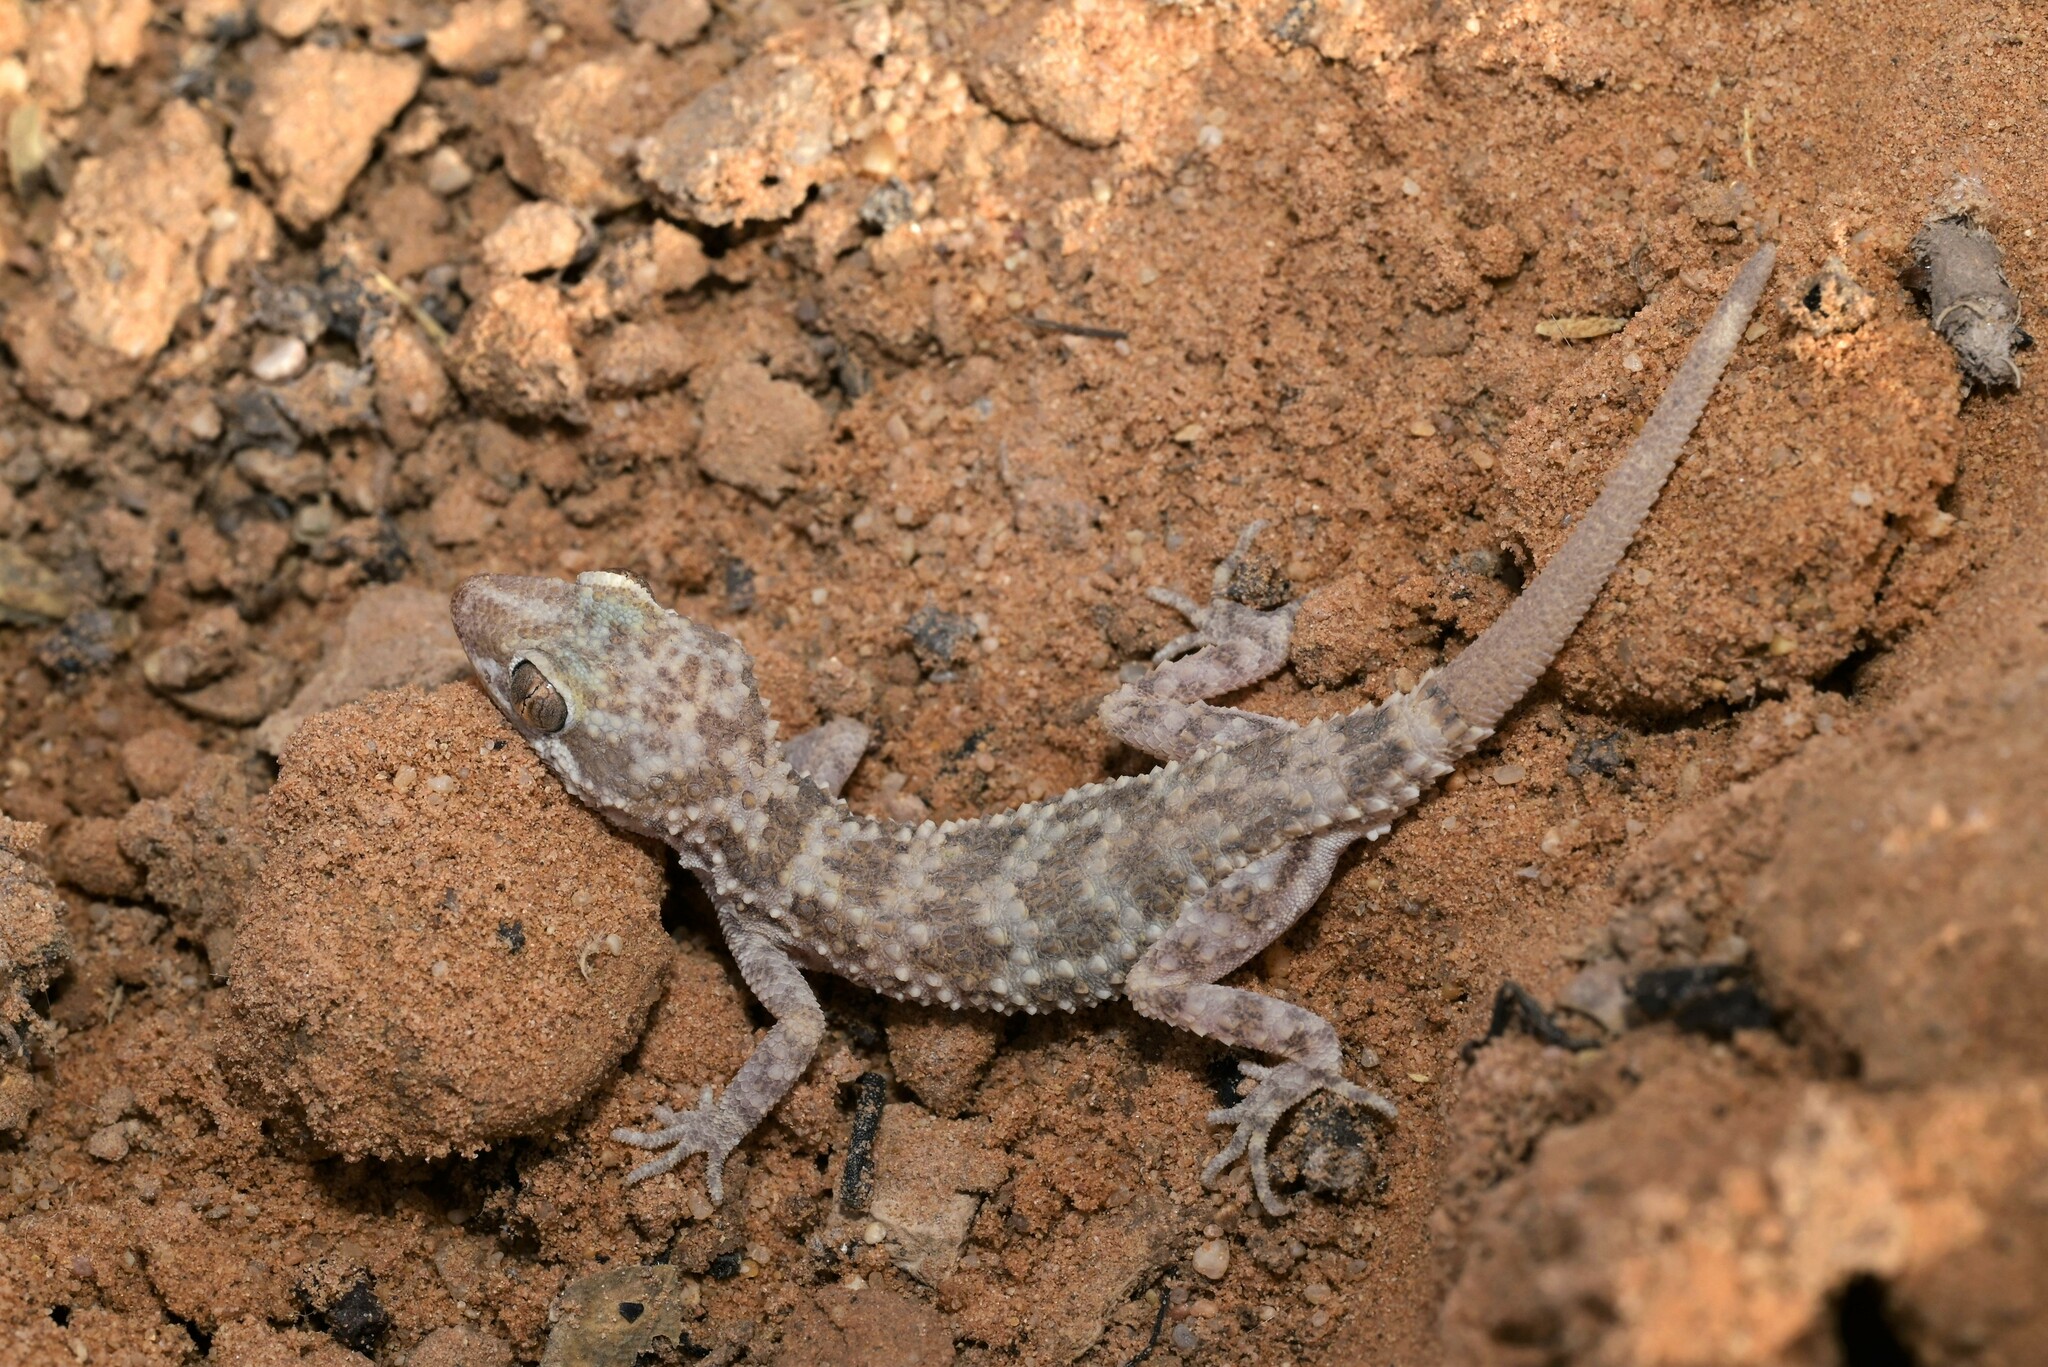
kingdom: Animalia
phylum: Chordata
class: Squamata
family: Gekkonidae
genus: Bunopus
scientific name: Bunopus tuberculatus
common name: Southern tuberculated gecko
